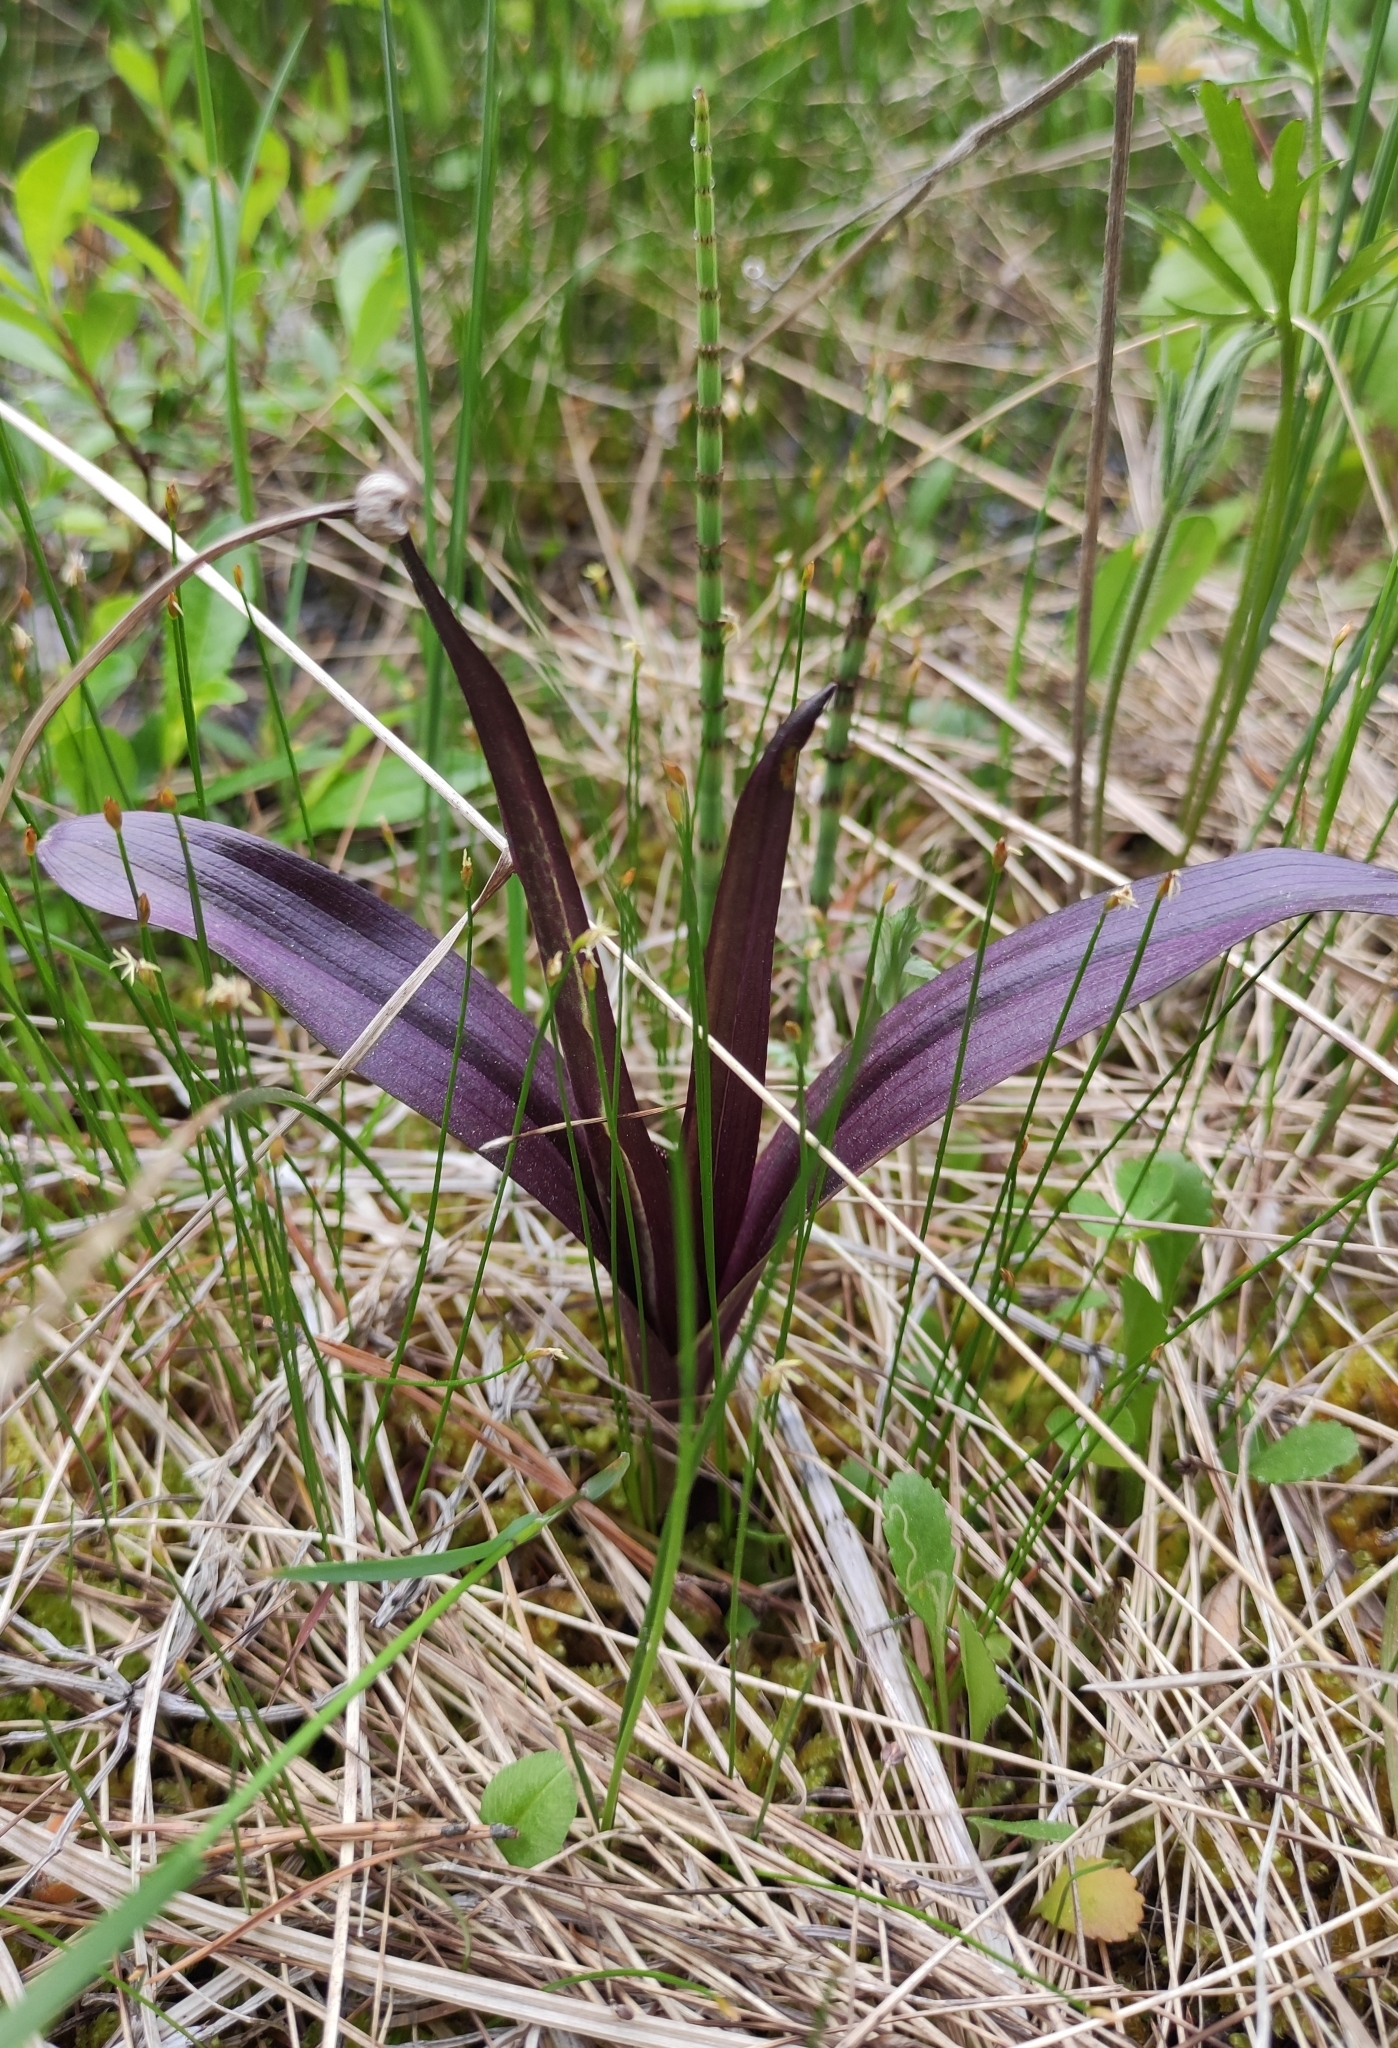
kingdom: Plantae
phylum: Tracheophyta
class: Liliopsida
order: Asparagales
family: Orchidaceae
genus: Dactylorhiza
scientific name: Dactylorhiza incarnata
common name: Early marsh-orchid
